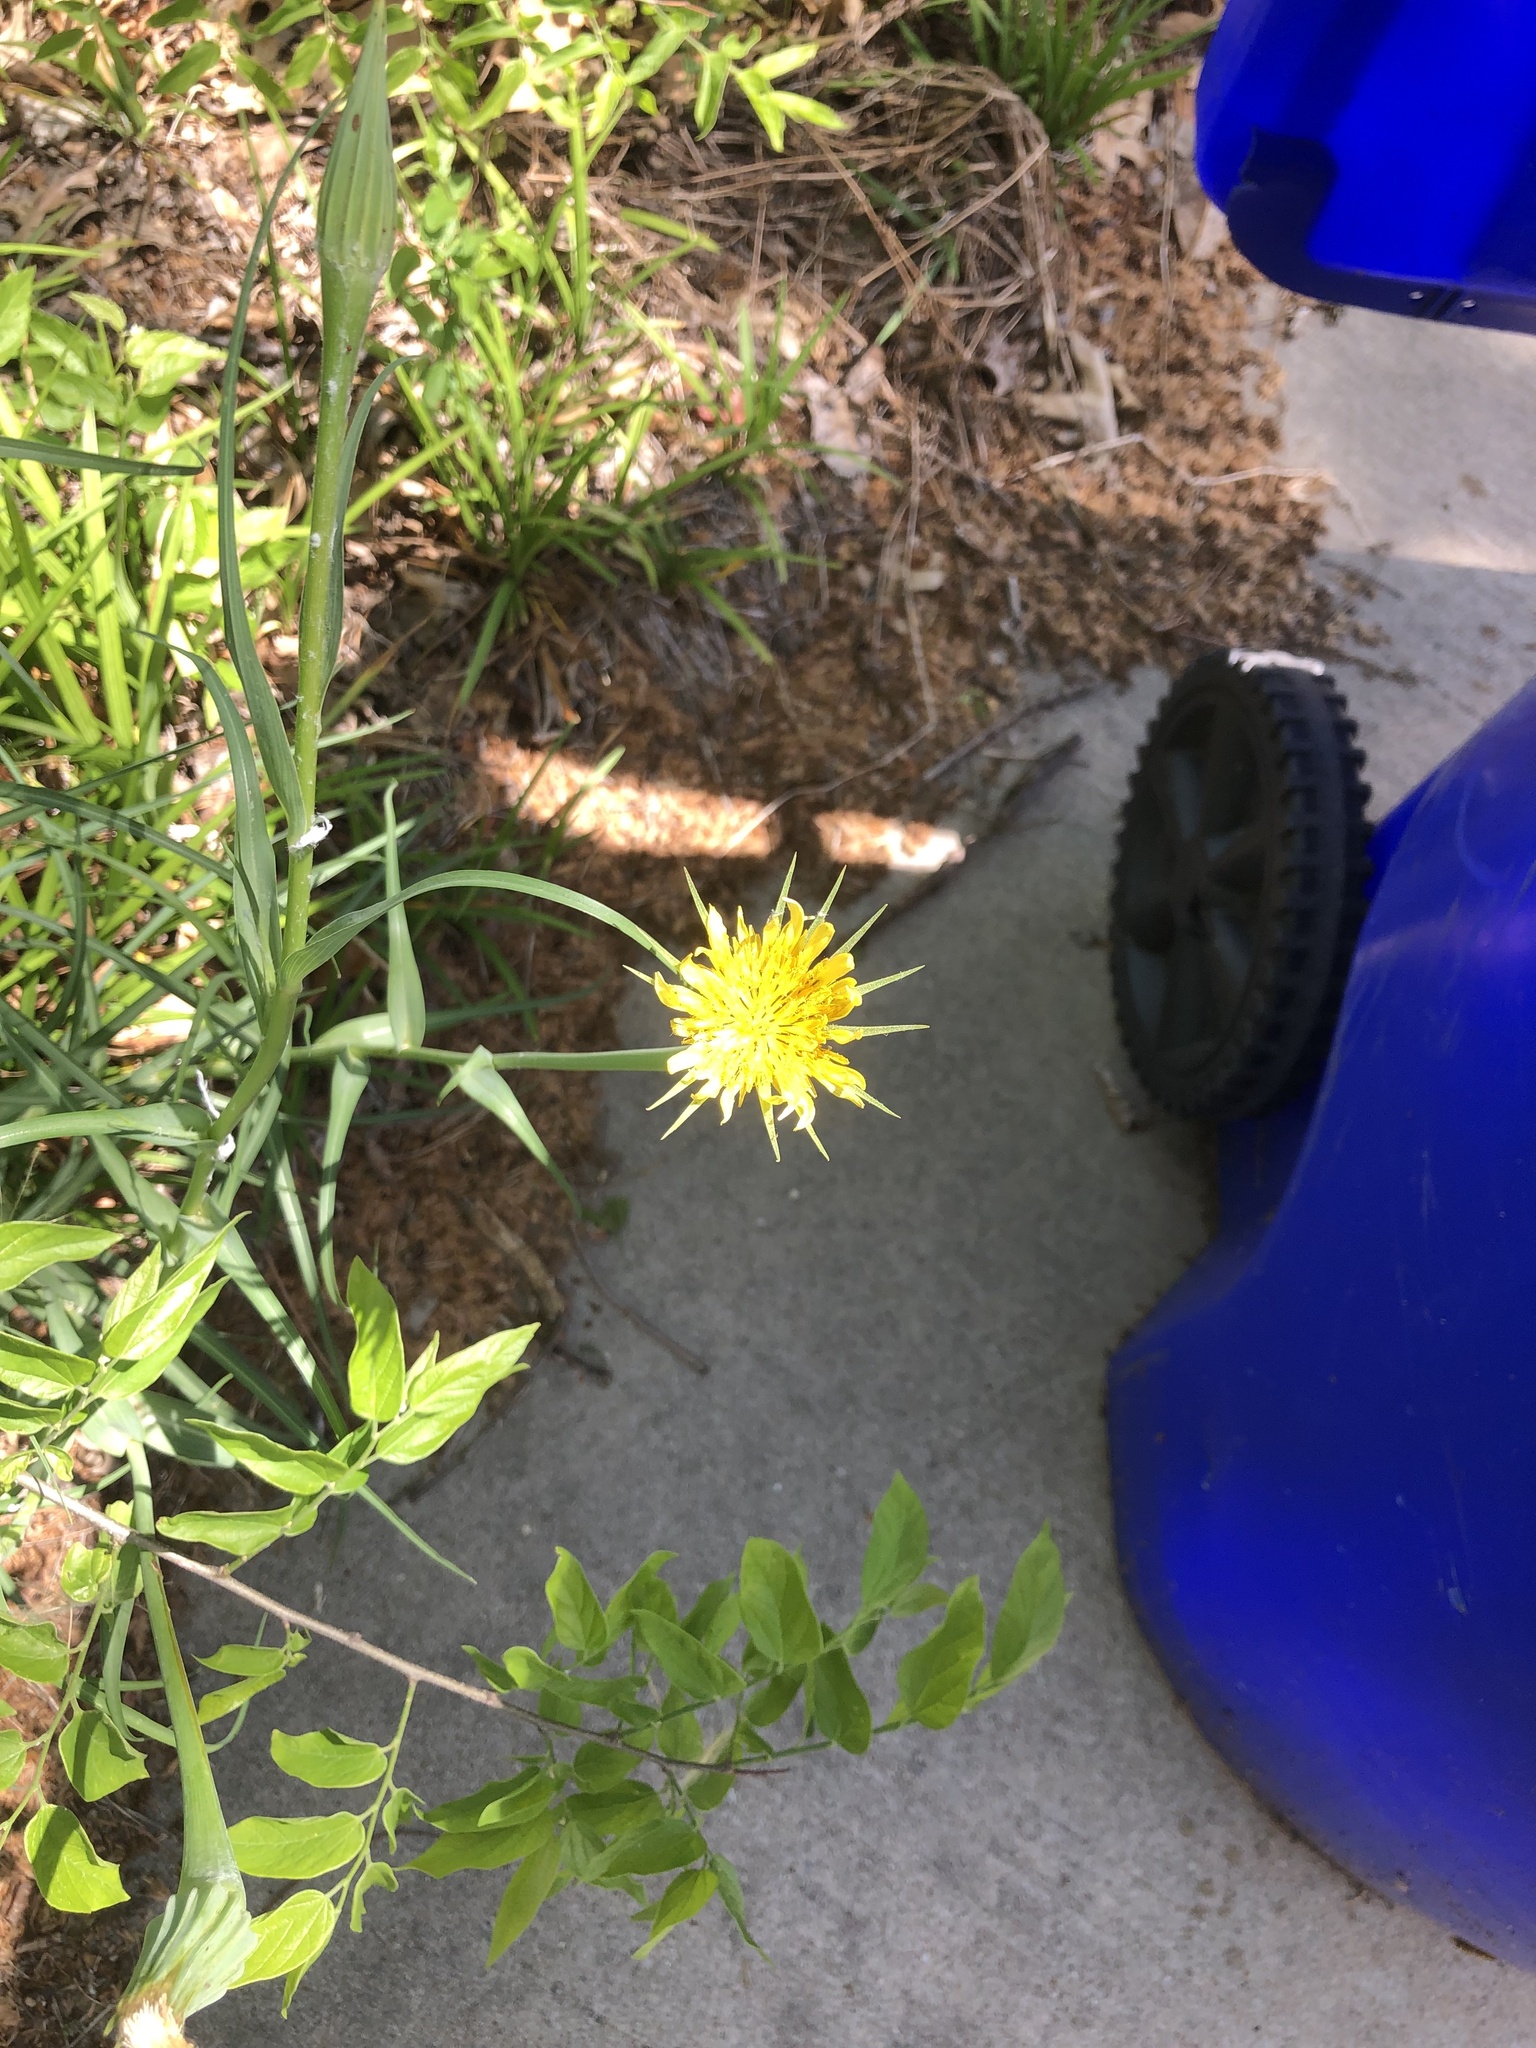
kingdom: Plantae
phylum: Tracheophyta
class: Magnoliopsida
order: Asterales
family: Asteraceae
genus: Tragopogon
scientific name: Tragopogon dubius
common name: Yellow salsify
